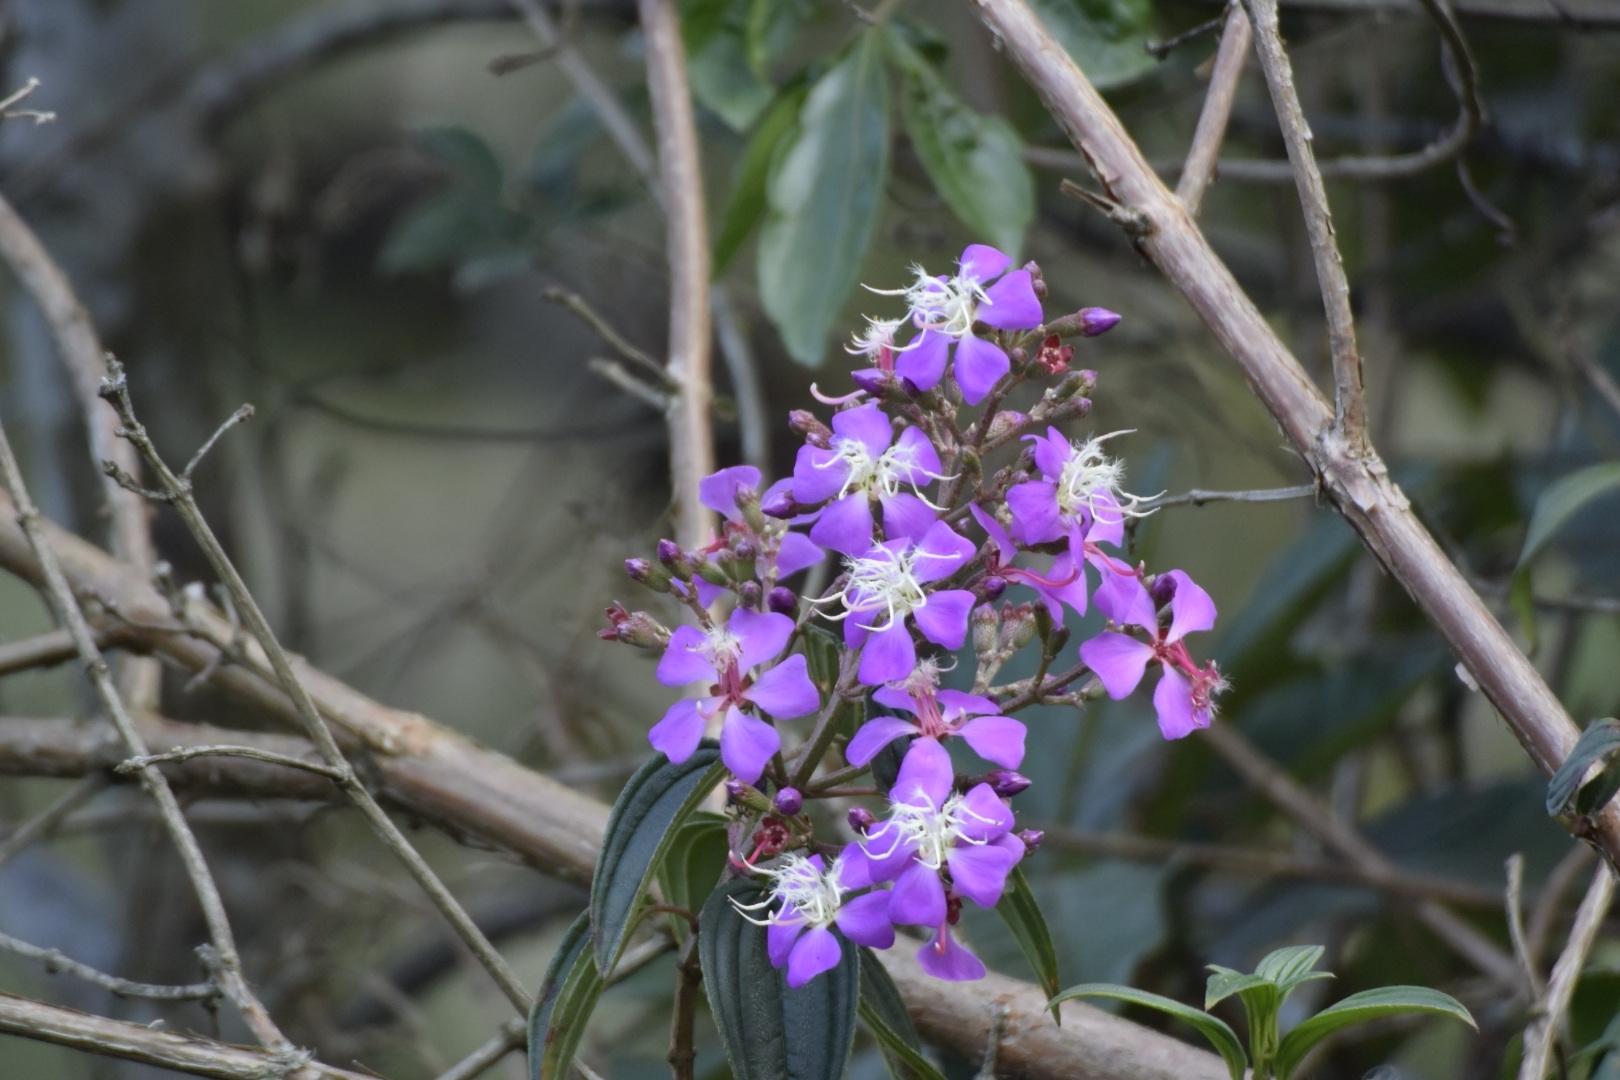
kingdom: Plantae
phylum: Tracheophyta
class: Magnoliopsida
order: Myrtales
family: Melastomataceae
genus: Pleroma
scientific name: Pleroma bipenicillatum
